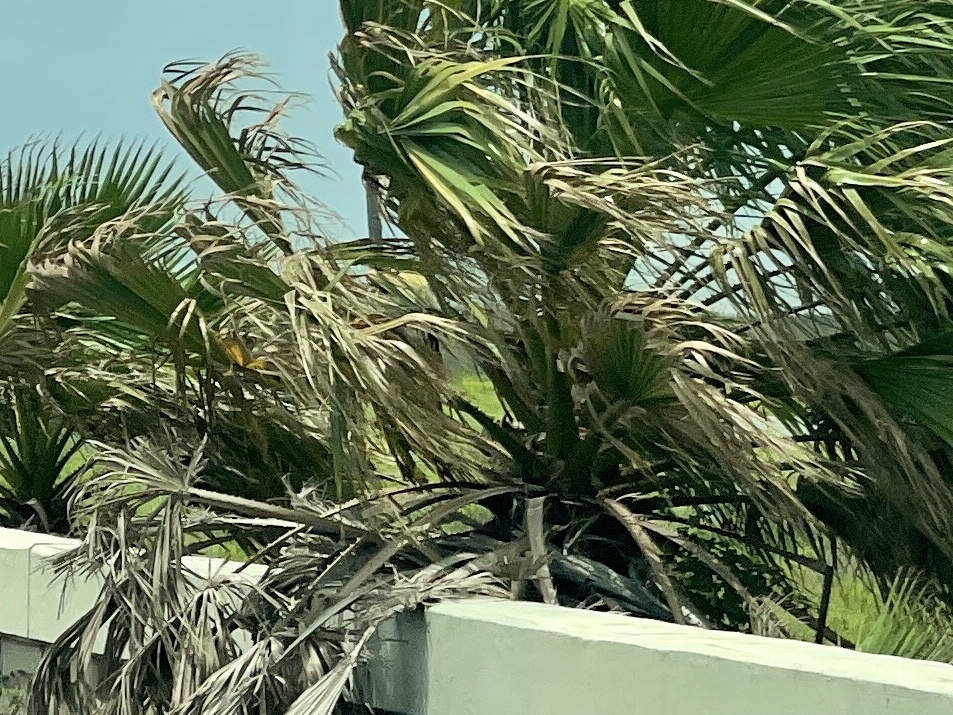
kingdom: Plantae
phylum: Tracheophyta
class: Liliopsida
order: Arecales
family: Arecaceae
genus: Washingtonia
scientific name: Washingtonia robusta
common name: Mexican fan palm
